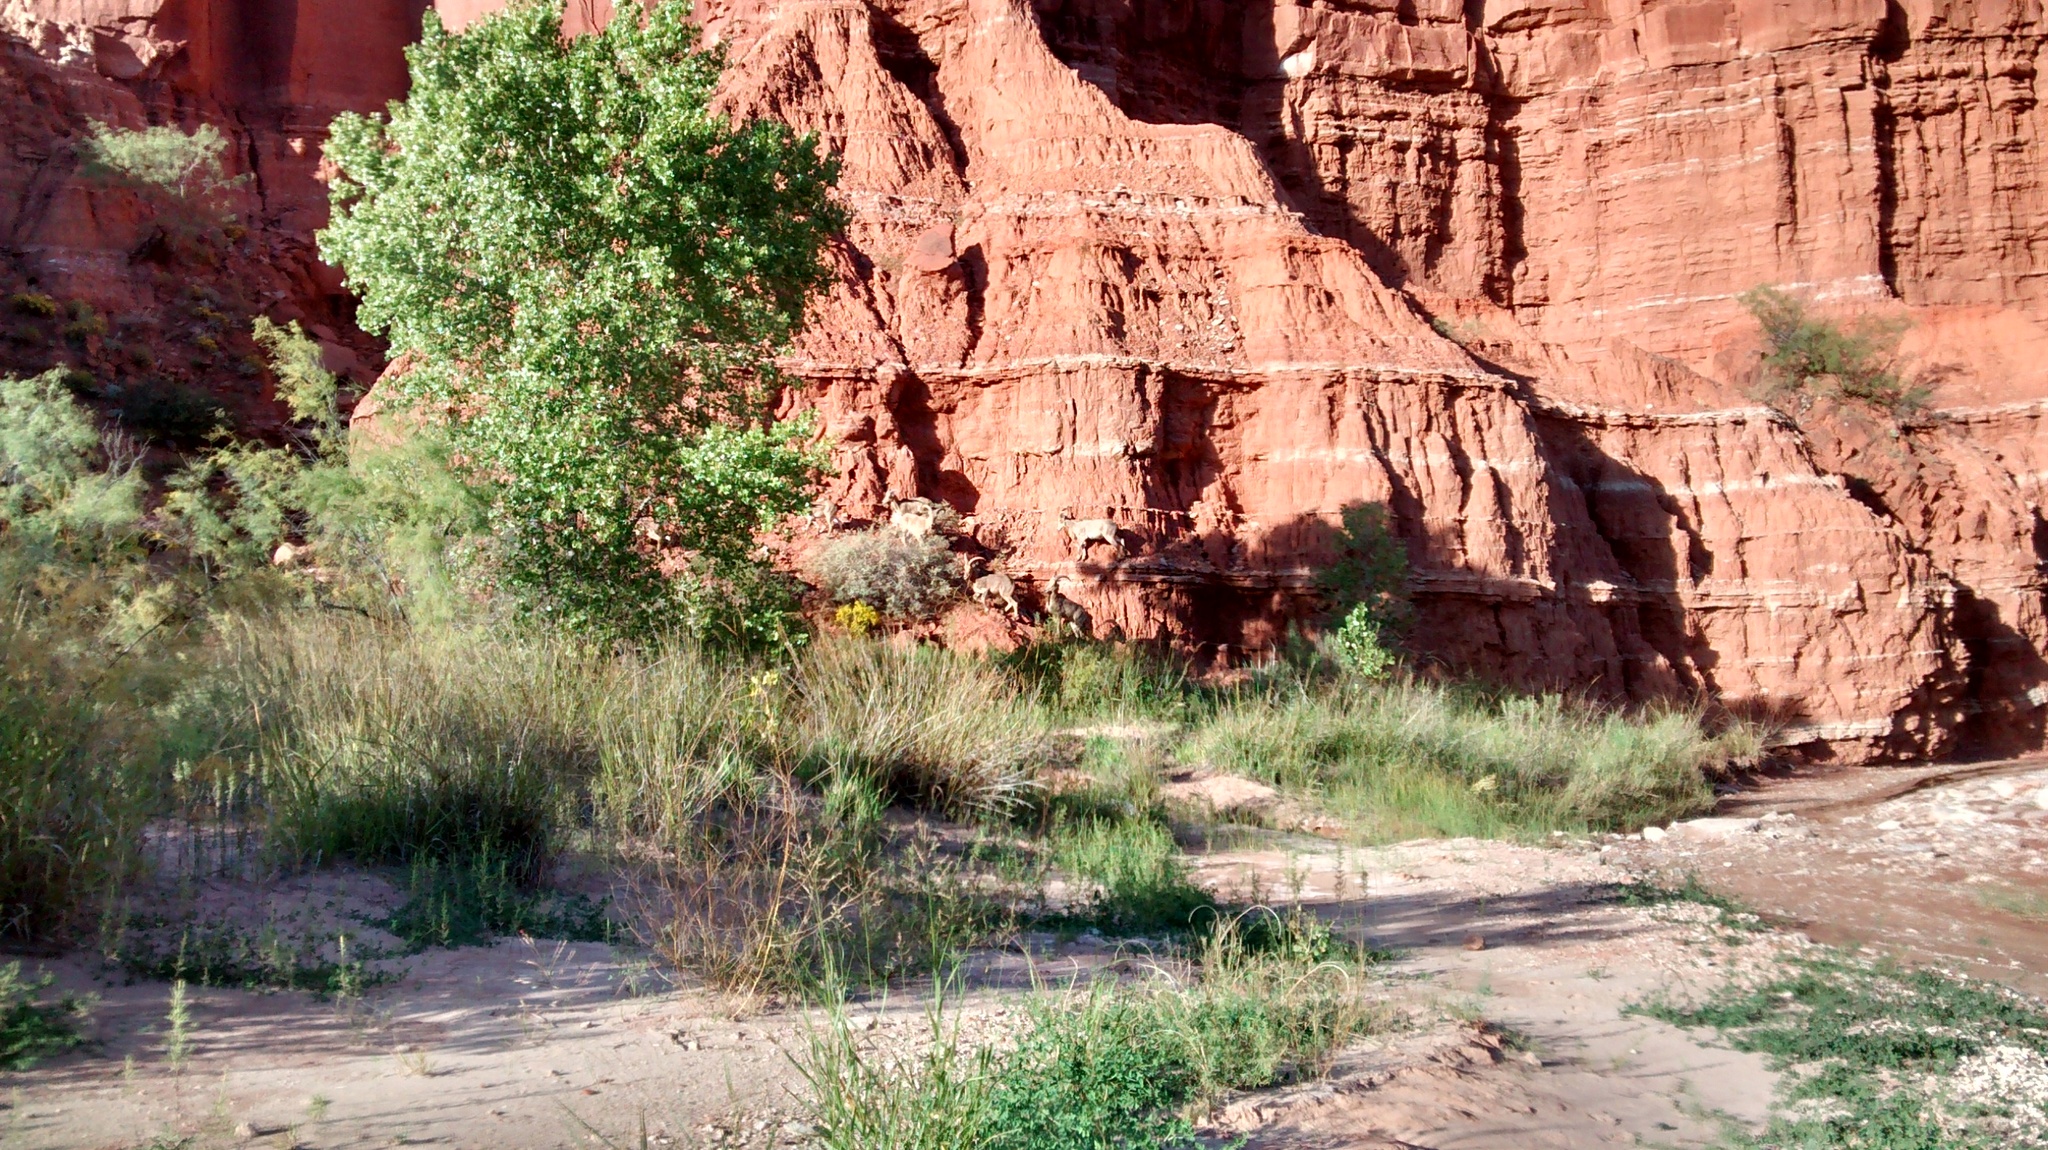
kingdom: Animalia
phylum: Chordata
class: Mammalia
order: Artiodactyla
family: Bovidae
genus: Ammotragus
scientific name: Ammotragus lervia
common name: Barbary sheep
